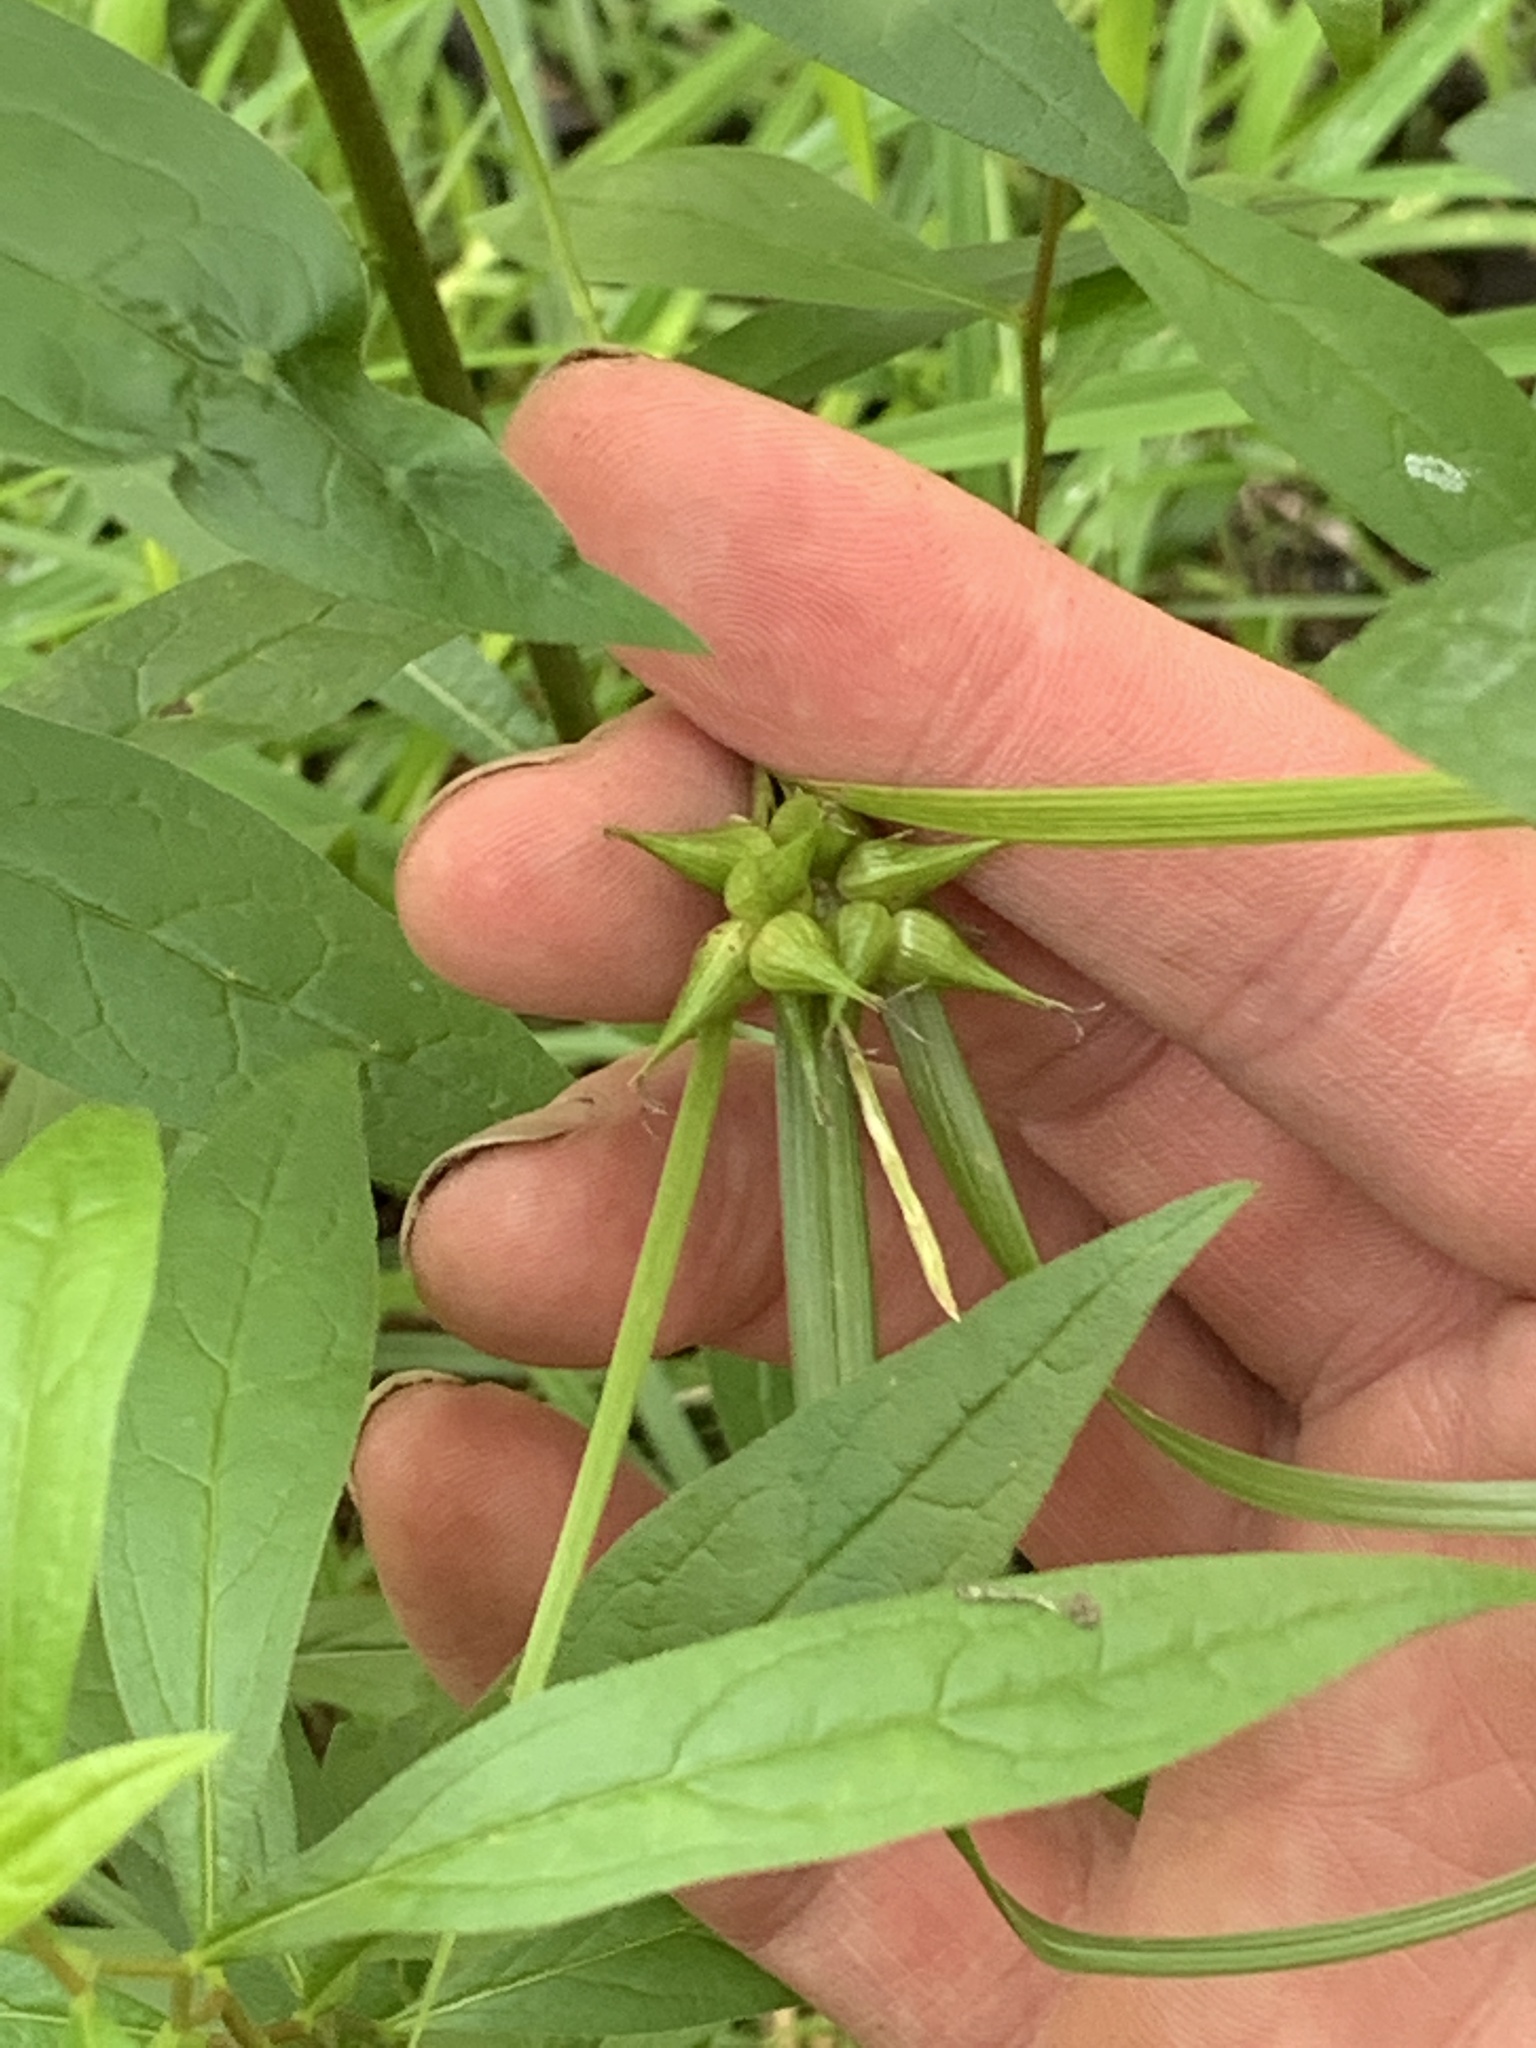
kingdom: Plantae
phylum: Tracheophyta
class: Liliopsida
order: Poales
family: Cyperaceae
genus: Carex
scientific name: Carex intumescens
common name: Greater bladder sedge
